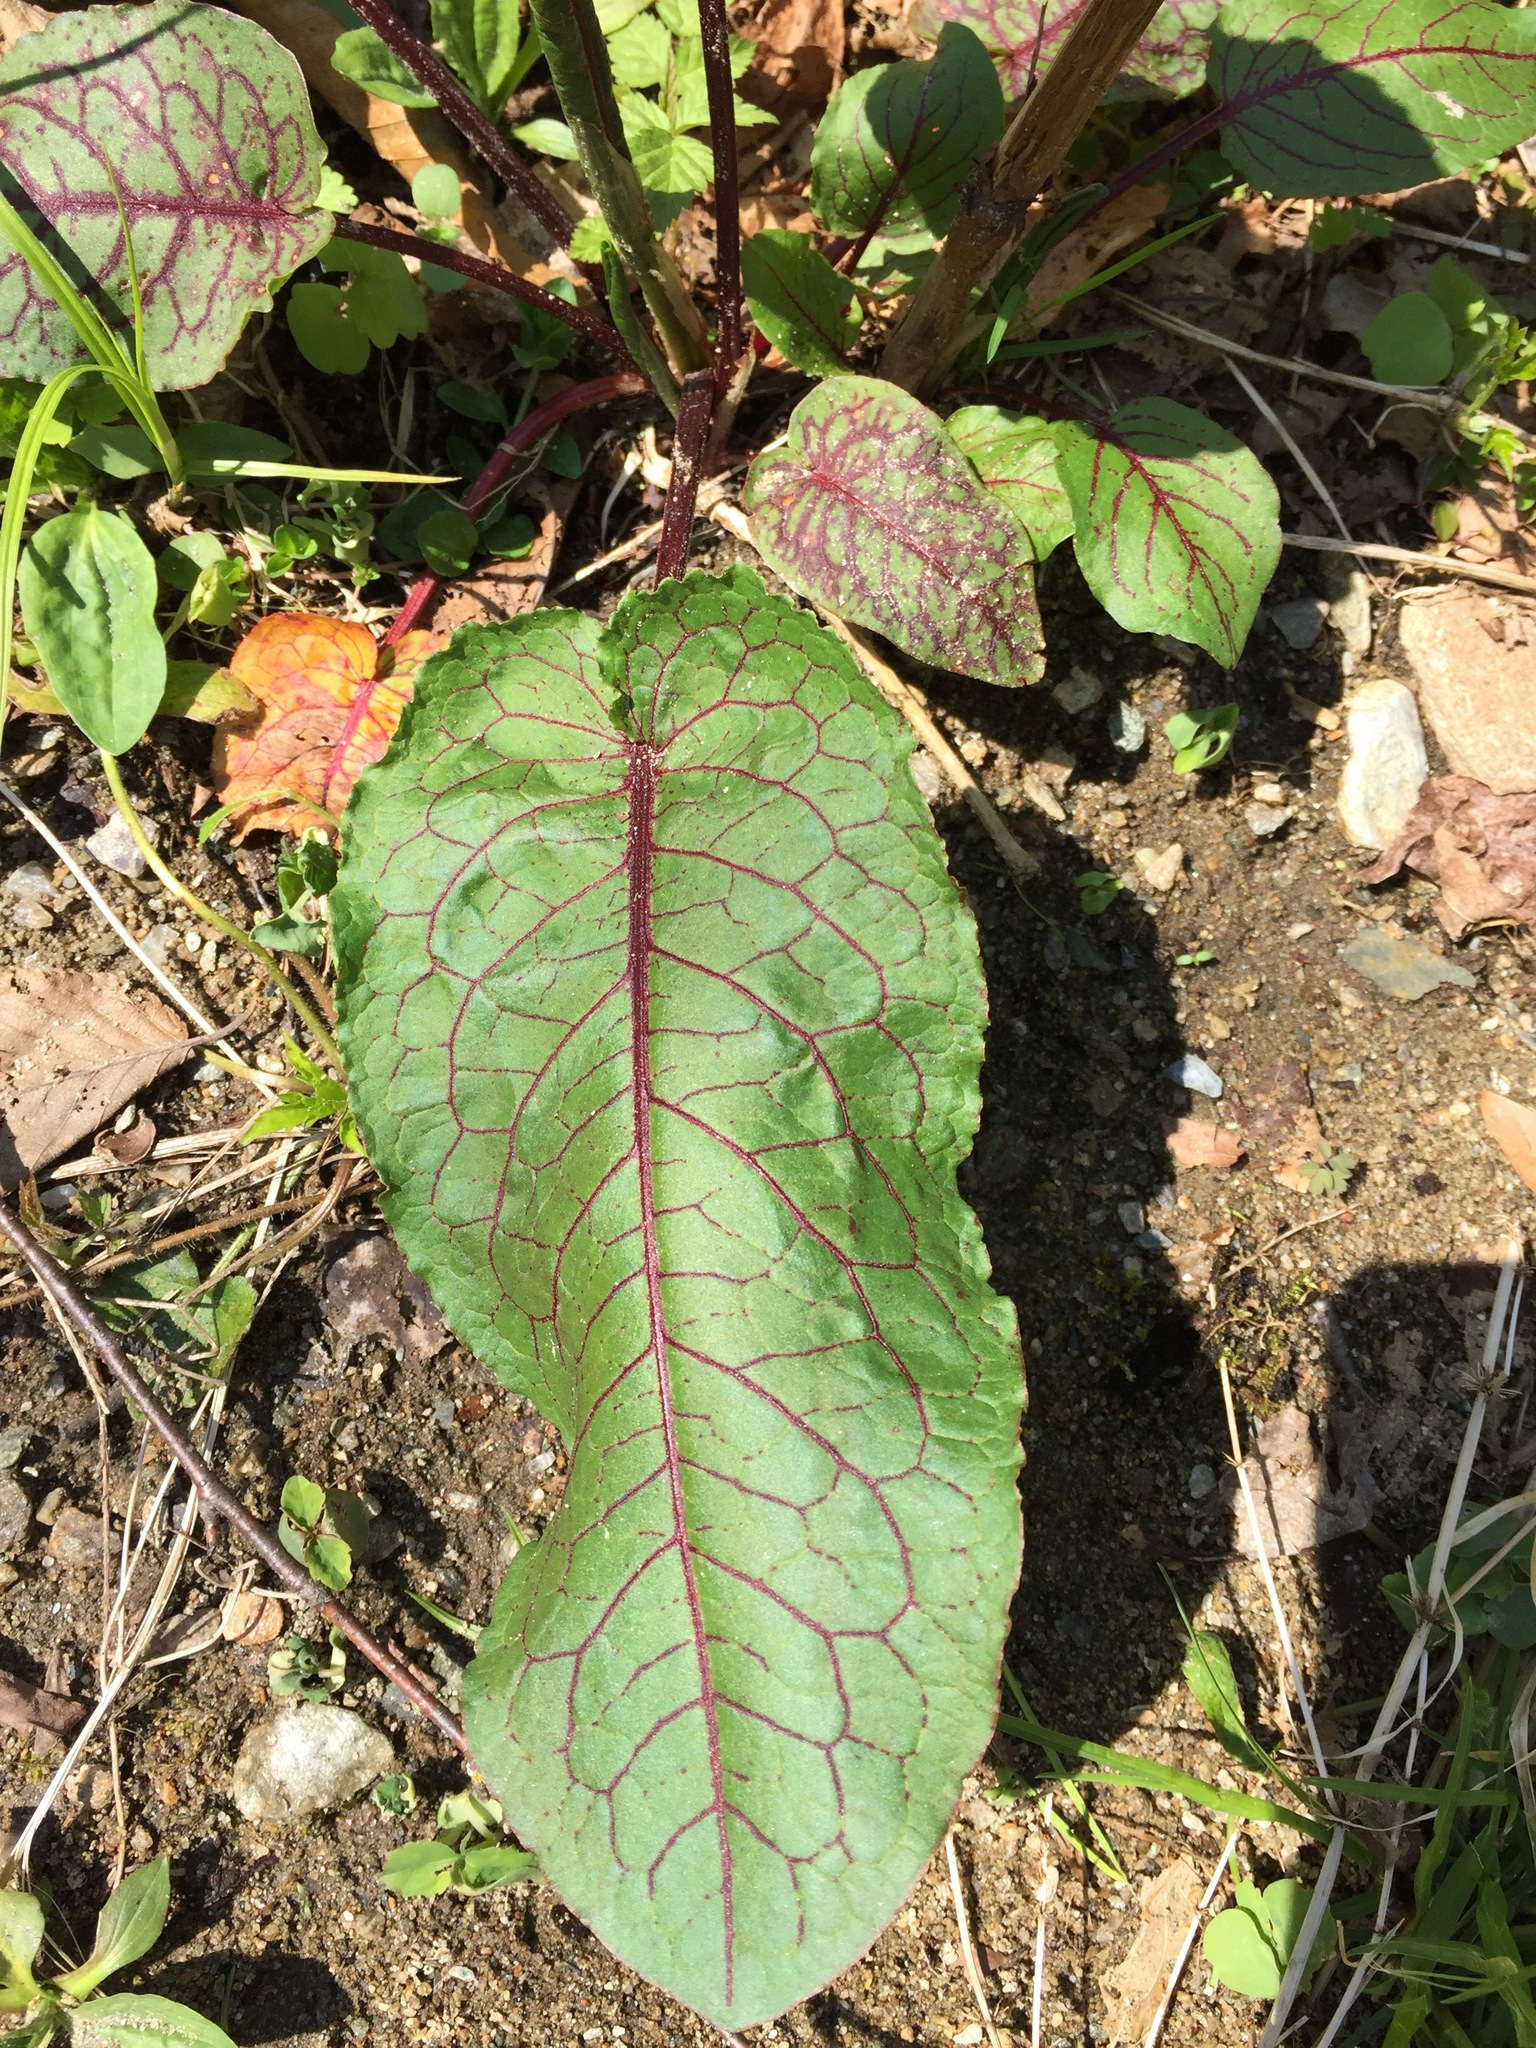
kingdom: Plantae
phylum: Tracheophyta
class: Magnoliopsida
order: Caryophyllales
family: Polygonaceae
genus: Rumex
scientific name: Rumex obtusifolius
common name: Bitter dock
